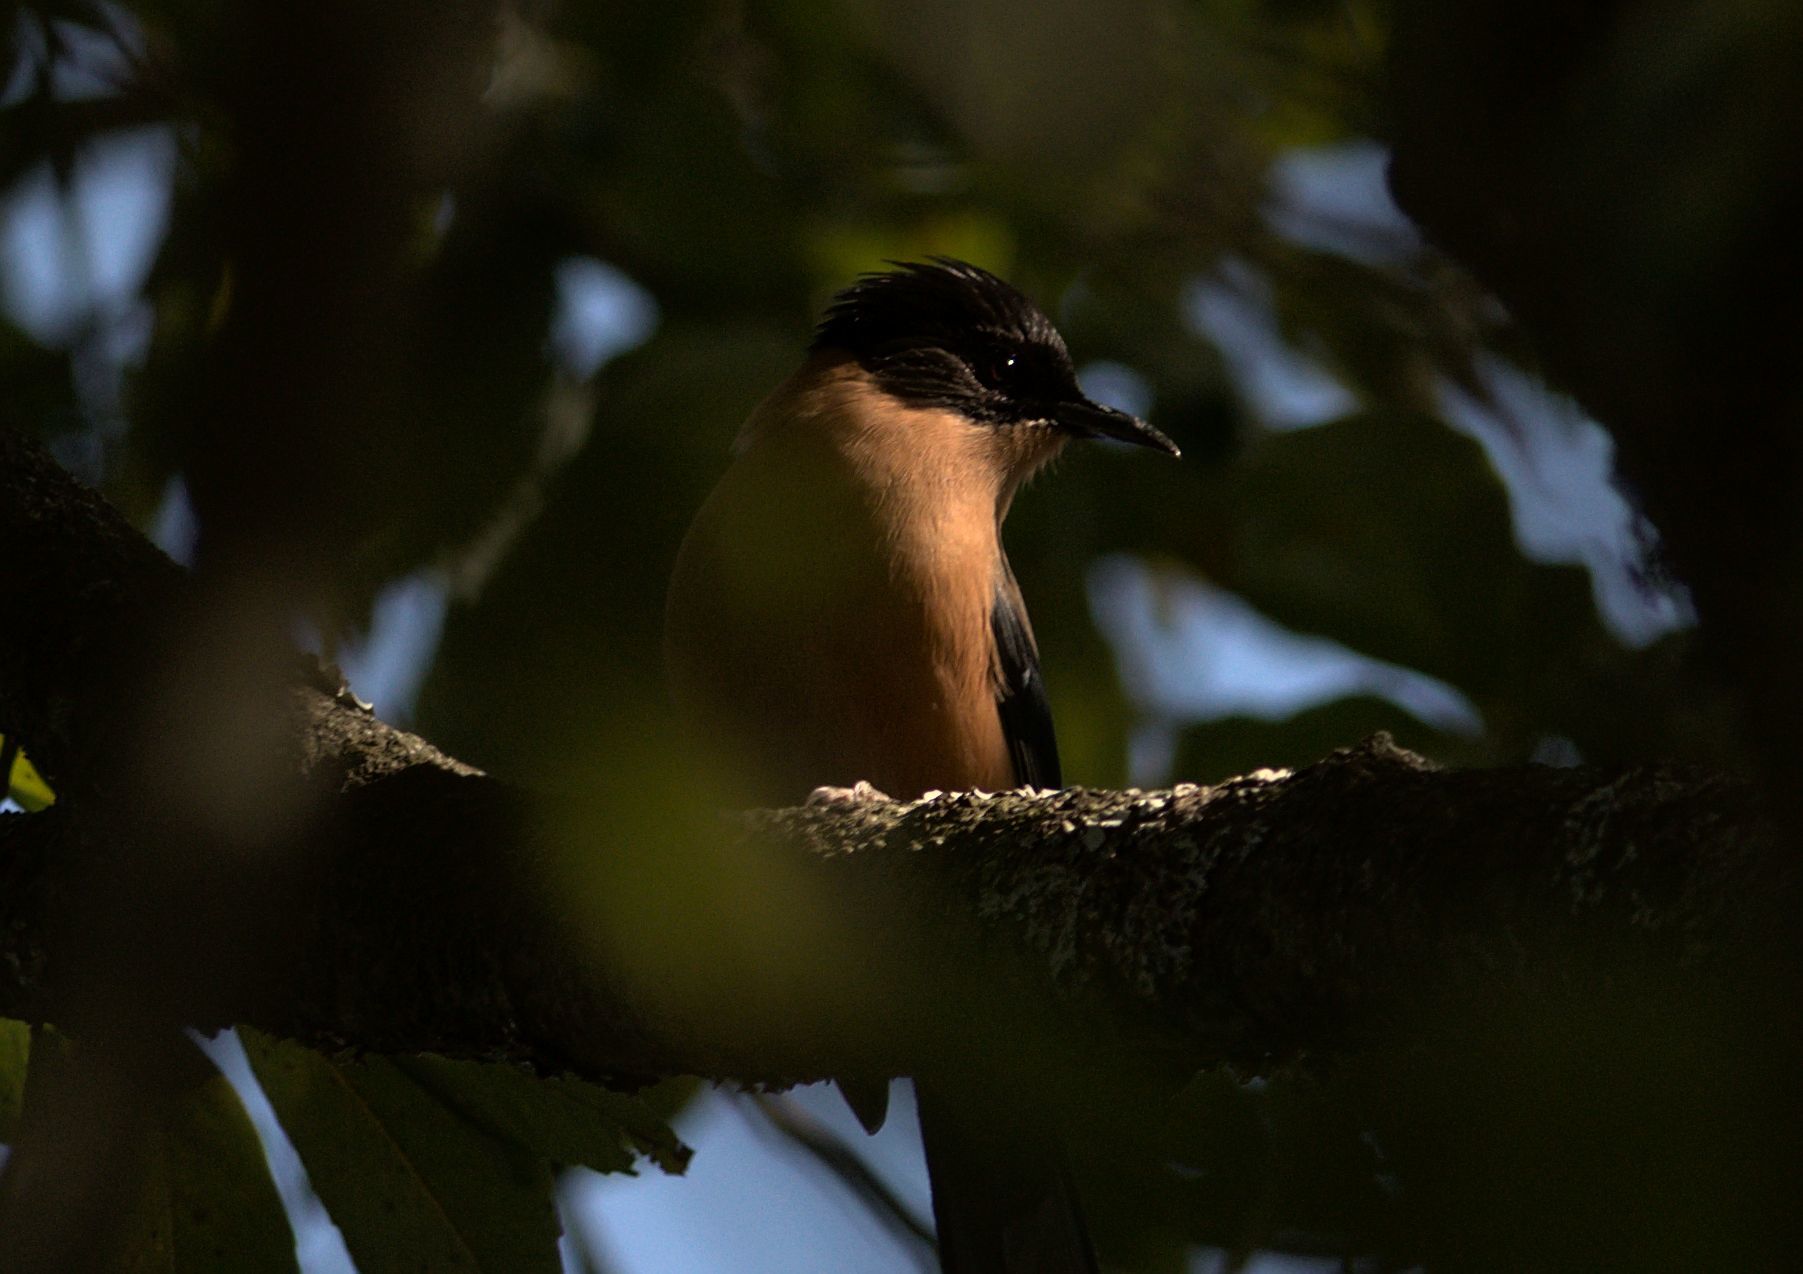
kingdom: Animalia
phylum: Chordata
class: Aves
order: Passeriformes
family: Leiothrichidae
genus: Heterophasia
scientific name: Heterophasia capistrata
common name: Rufous sibia
